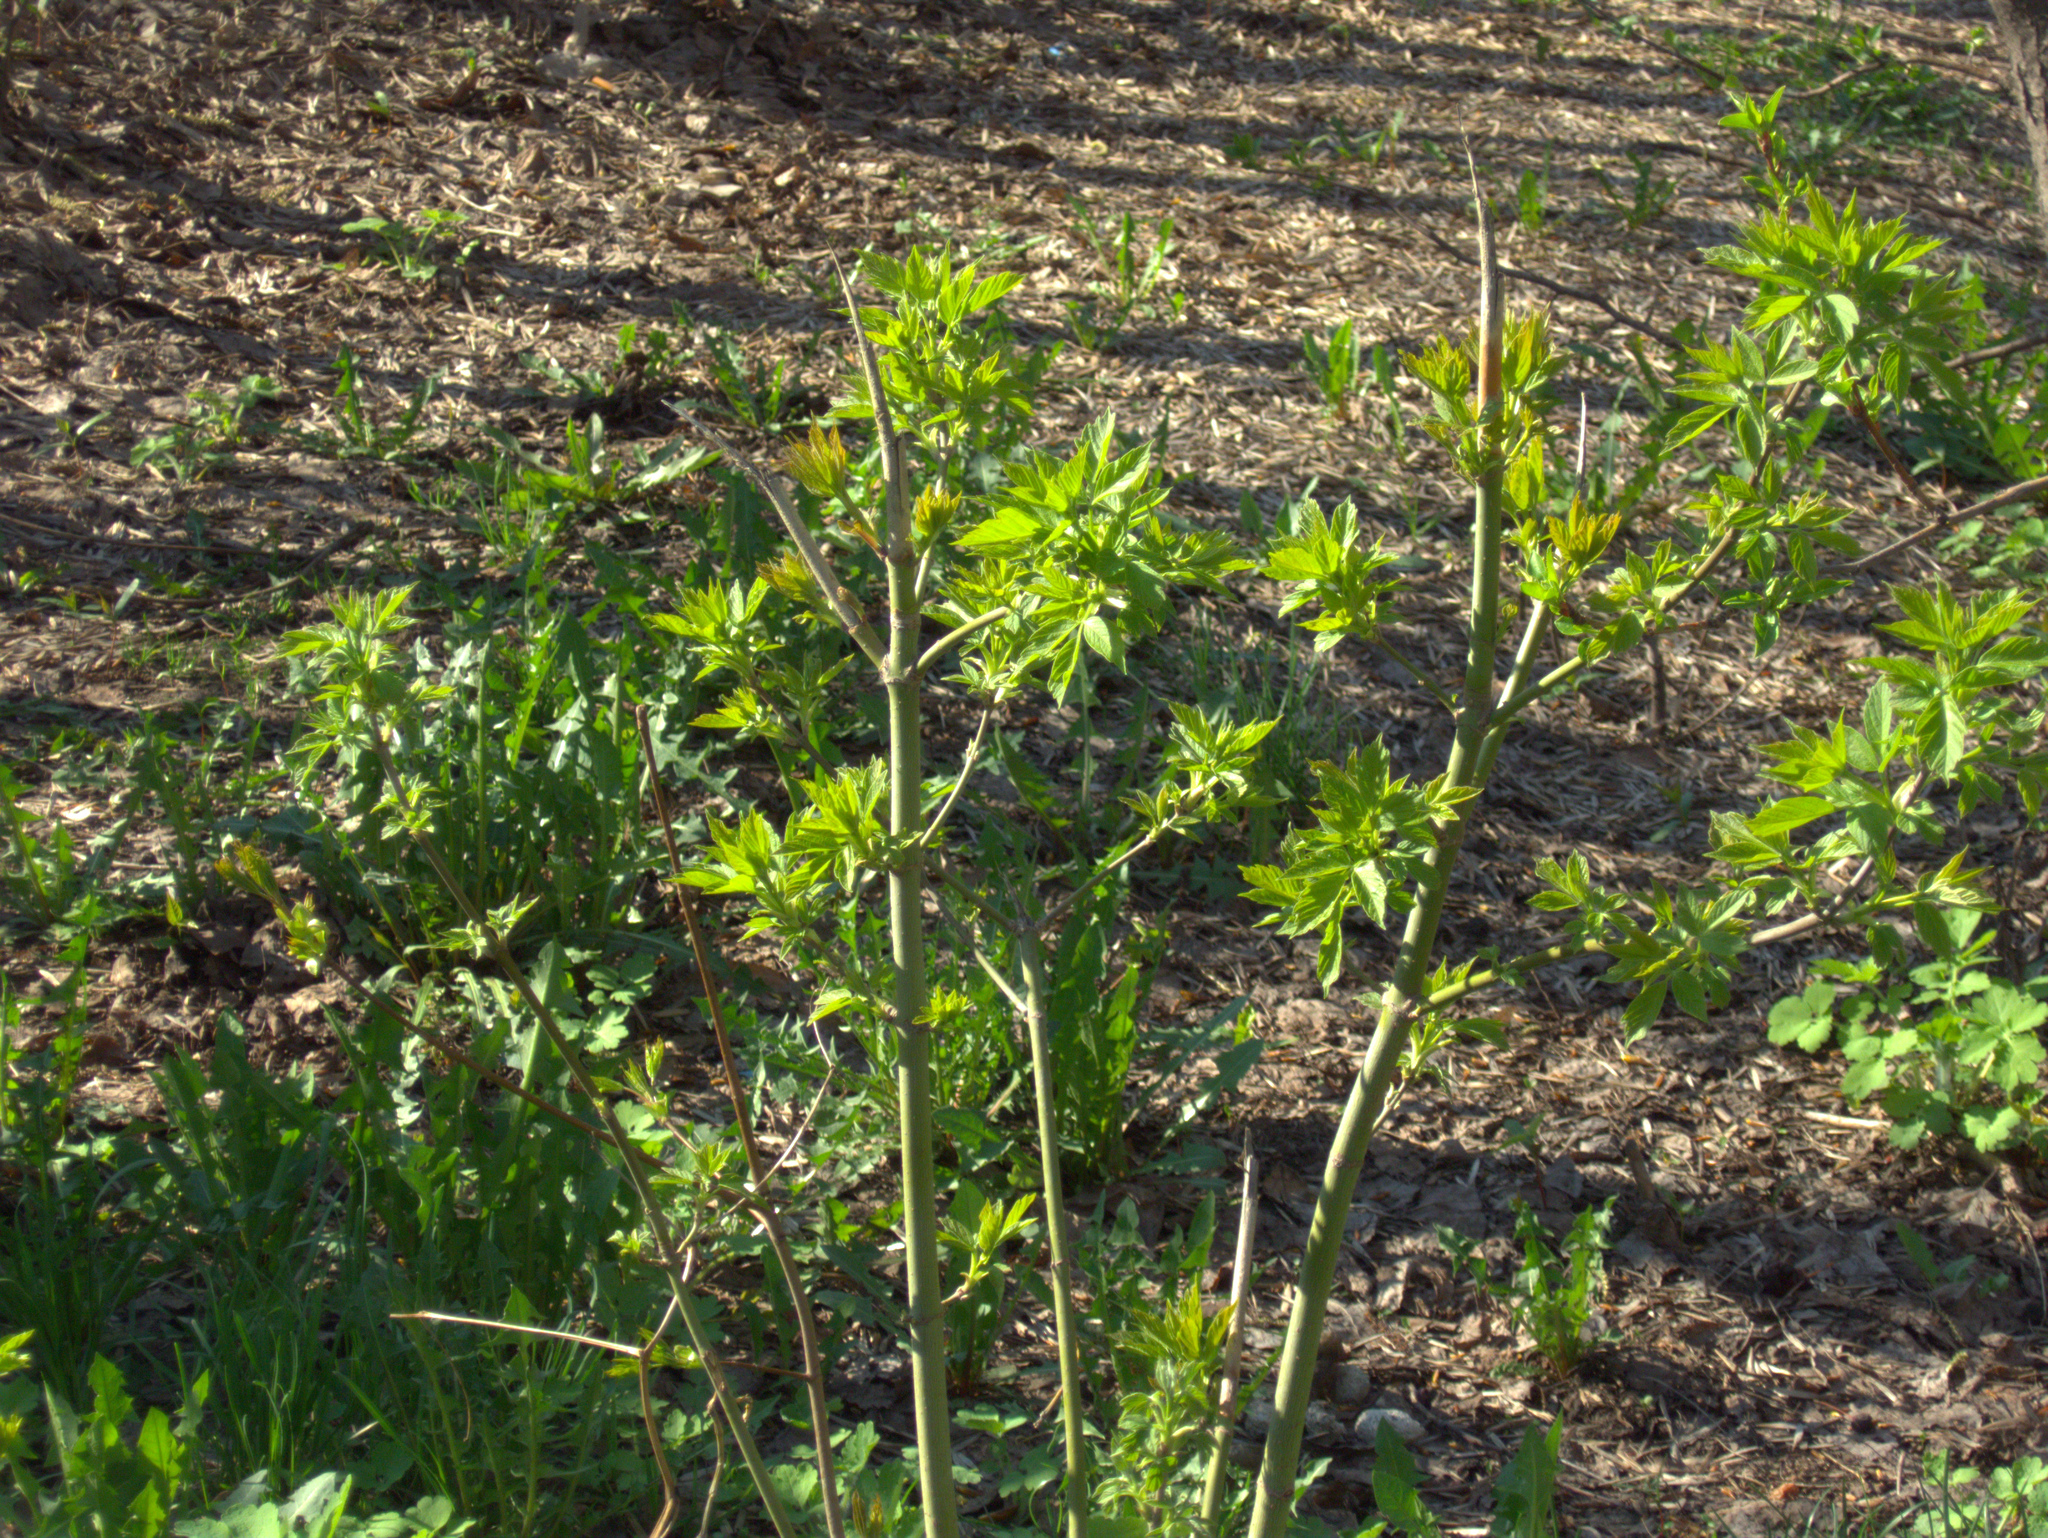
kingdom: Plantae
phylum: Tracheophyta
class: Magnoliopsida
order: Sapindales
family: Sapindaceae
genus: Acer
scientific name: Acer negundo
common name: Ashleaf maple
